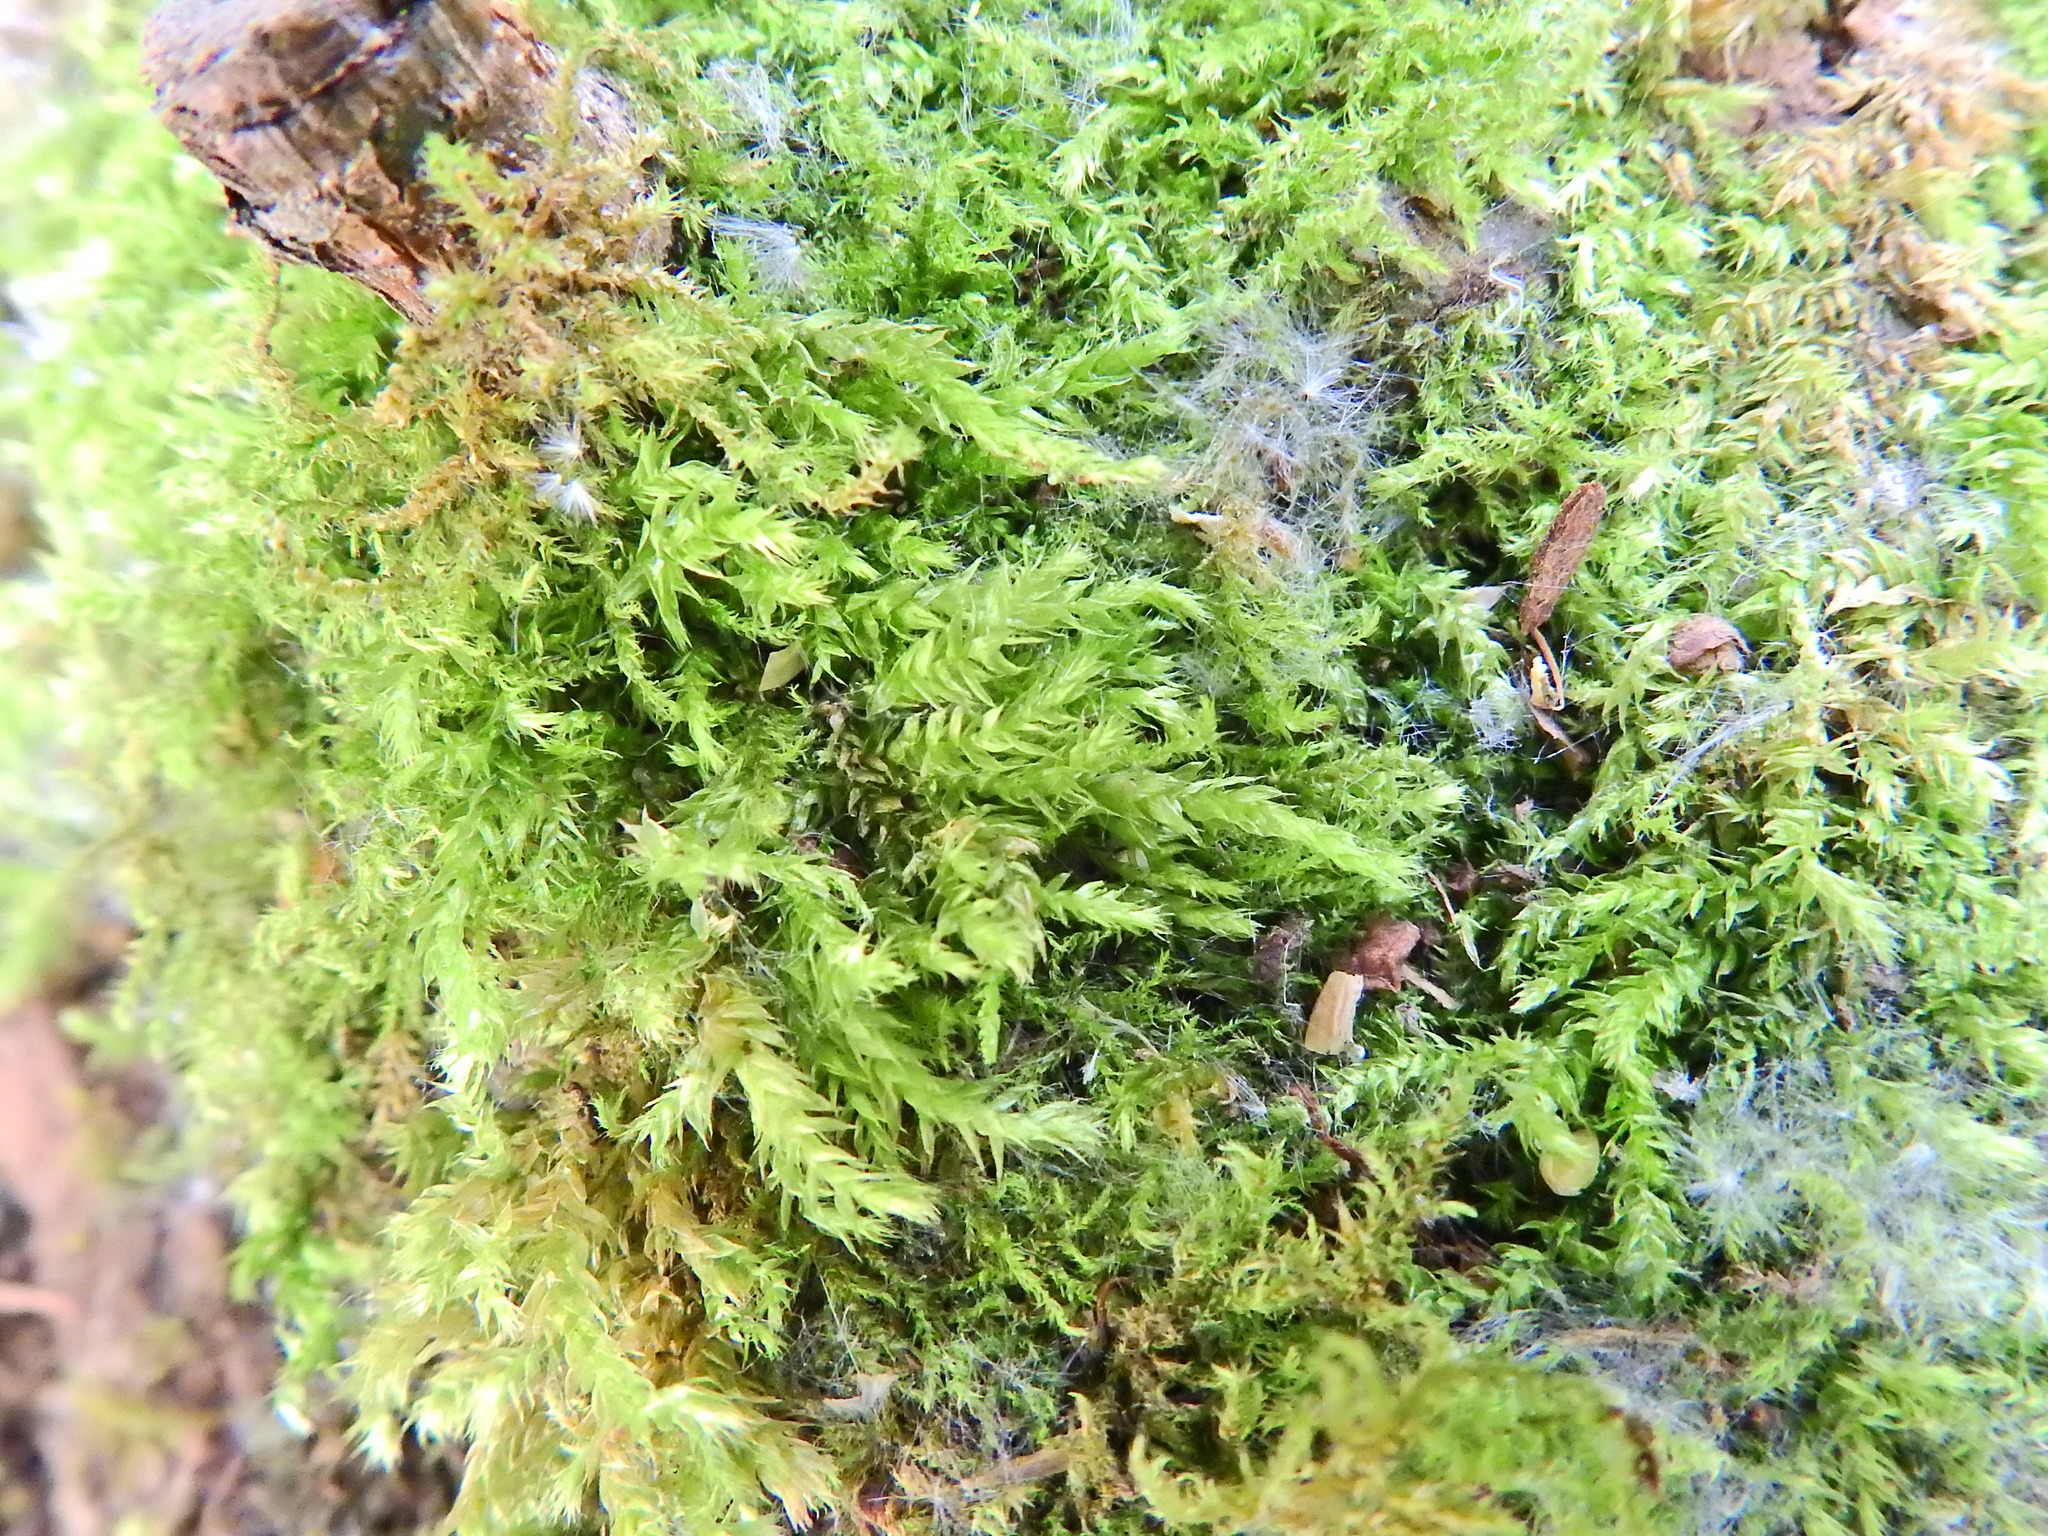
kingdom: Plantae
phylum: Bryophyta
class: Bryopsida
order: Hypnales
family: Brachytheciaceae
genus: Brachythecium
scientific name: Brachythecium rutabulum
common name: Rough-stalked feather-moss
